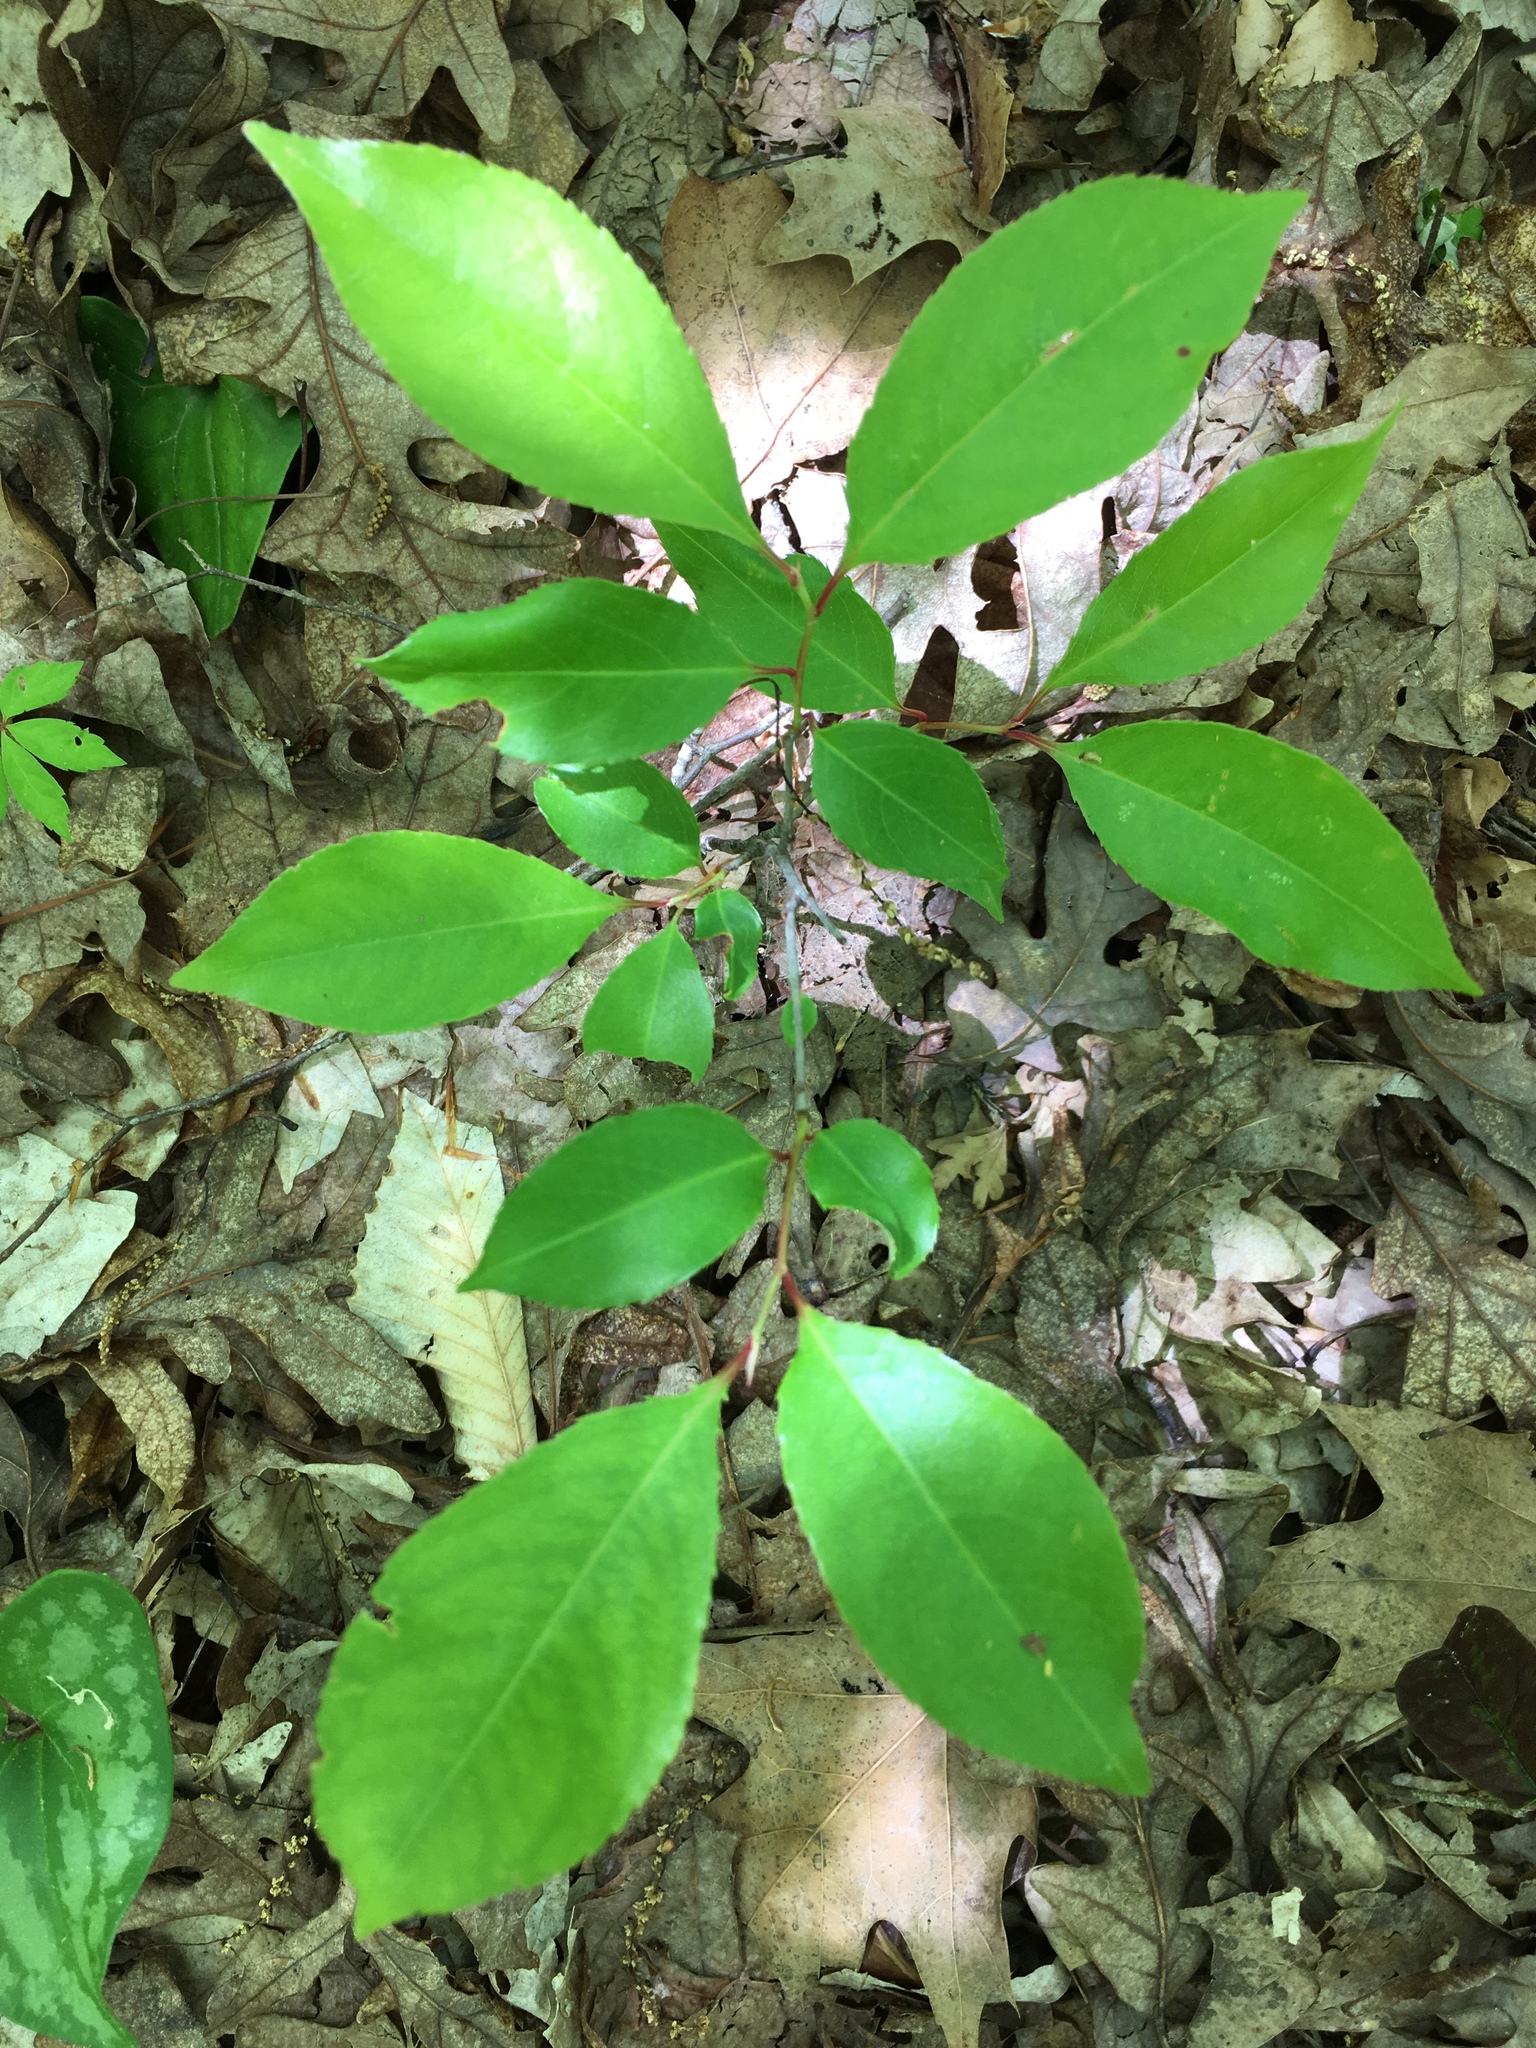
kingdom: Plantae
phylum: Tracheophyta
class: Magnoliopsida
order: Rosales
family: Rosaceae
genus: Prunus
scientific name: Prunus serotina
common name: Black cherry
